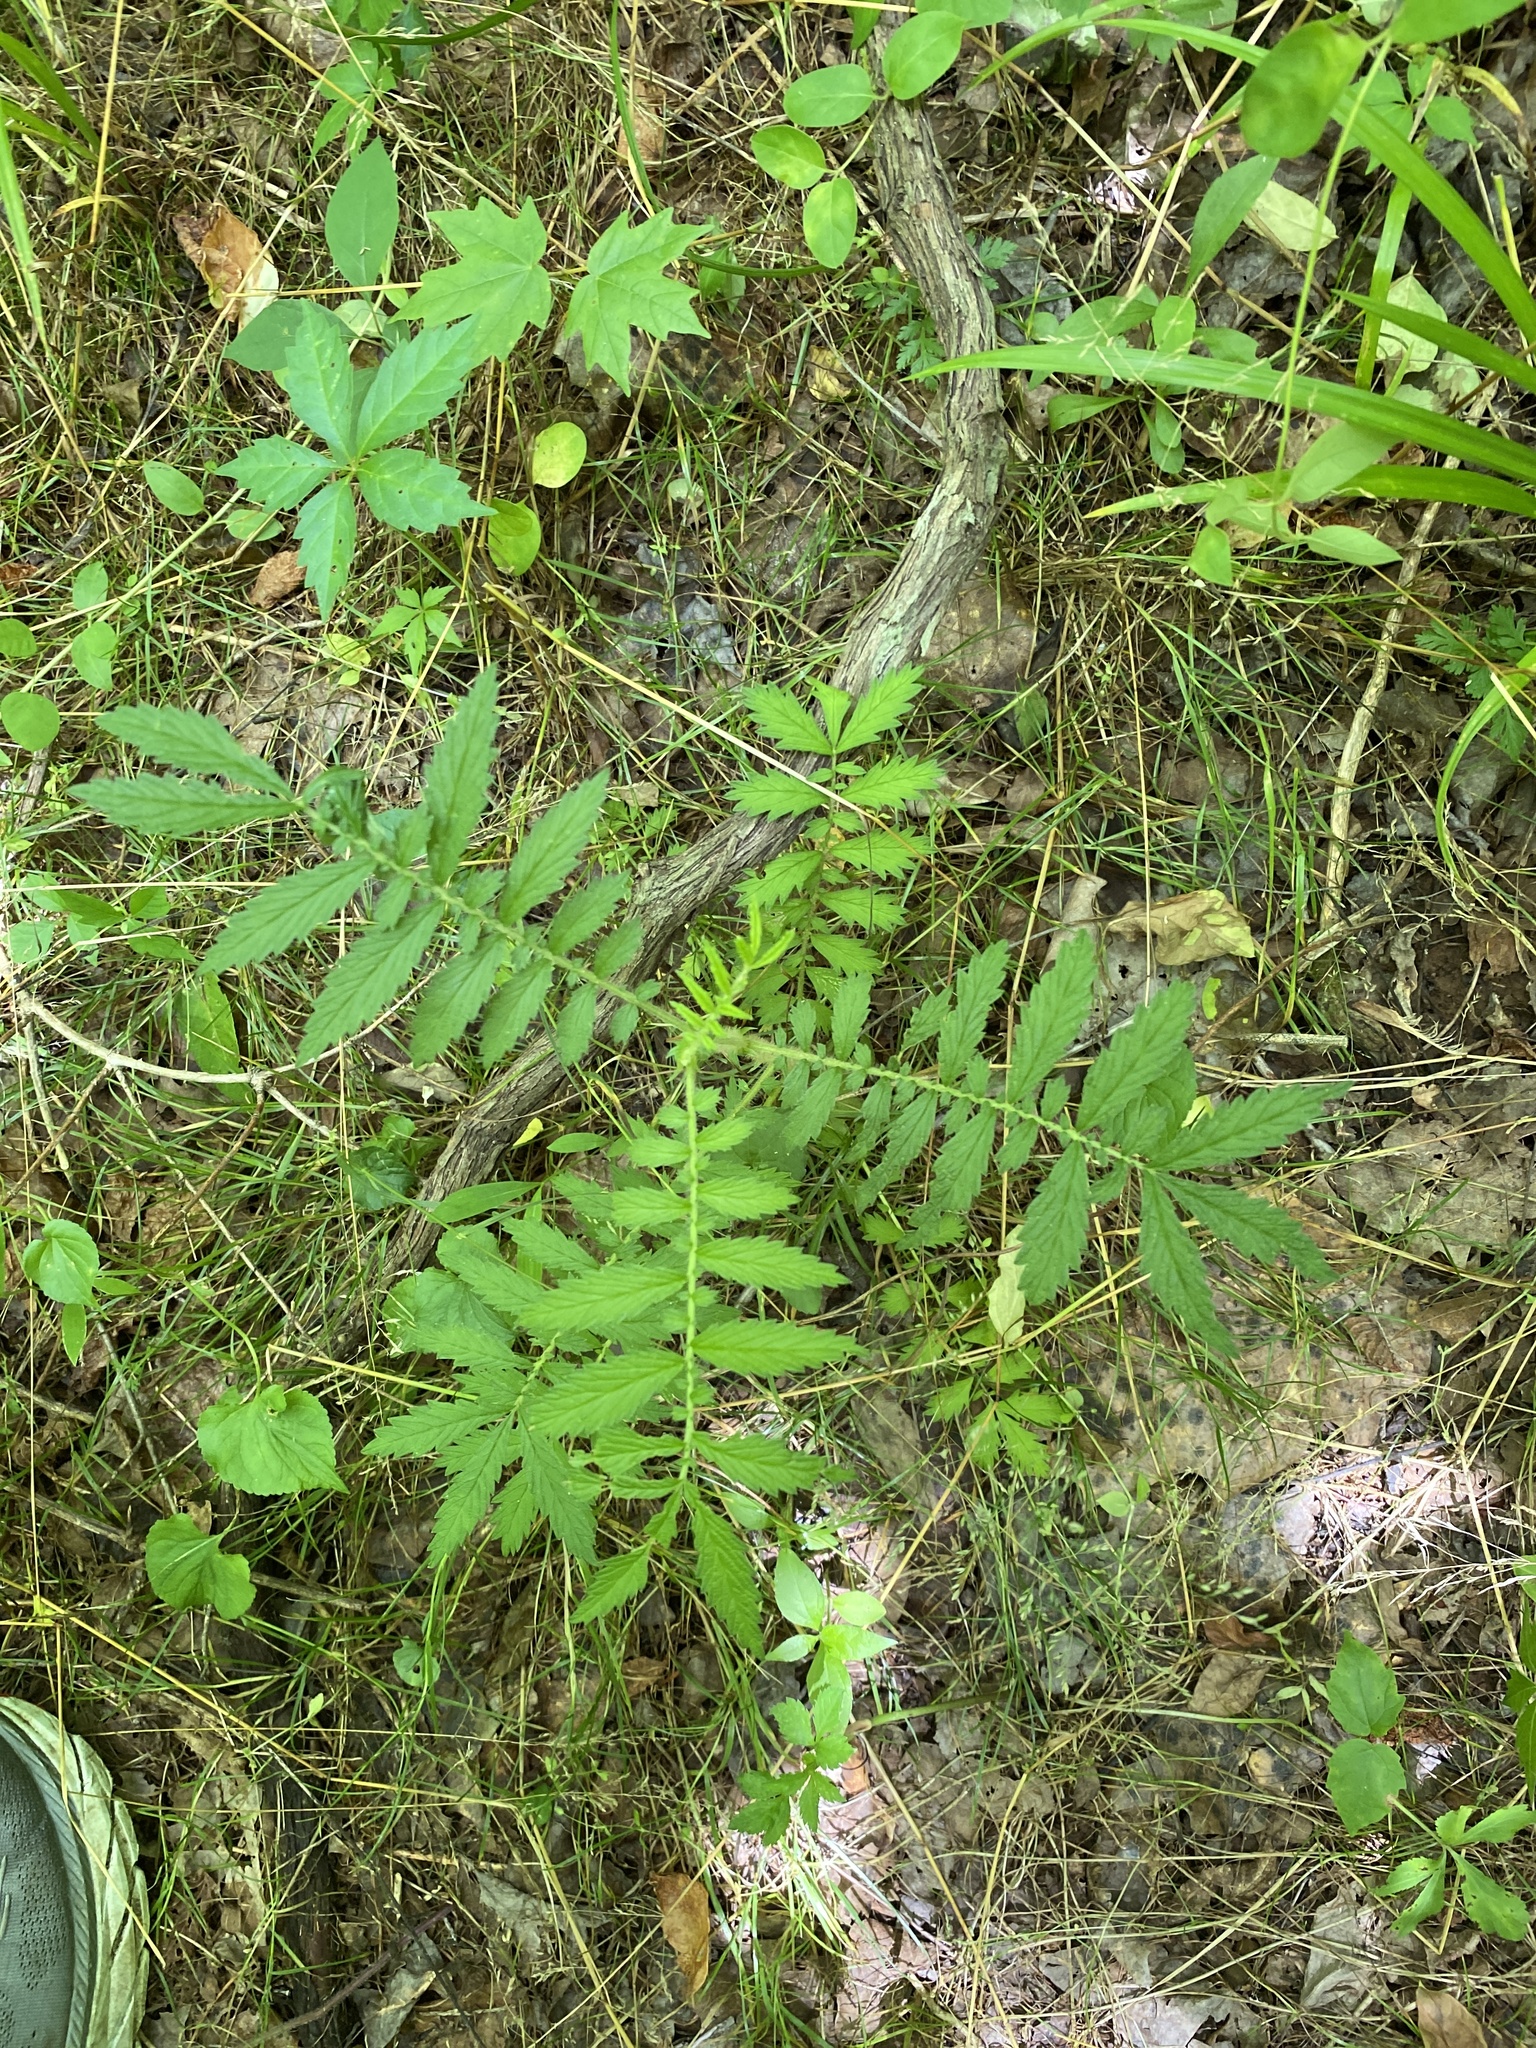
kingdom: Plantae
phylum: Tracheophyta
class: Magnoliopsida
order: Rosales
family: Rosaceae
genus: Agrimonia
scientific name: Agrimonia parviflora
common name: Harvest-lice
